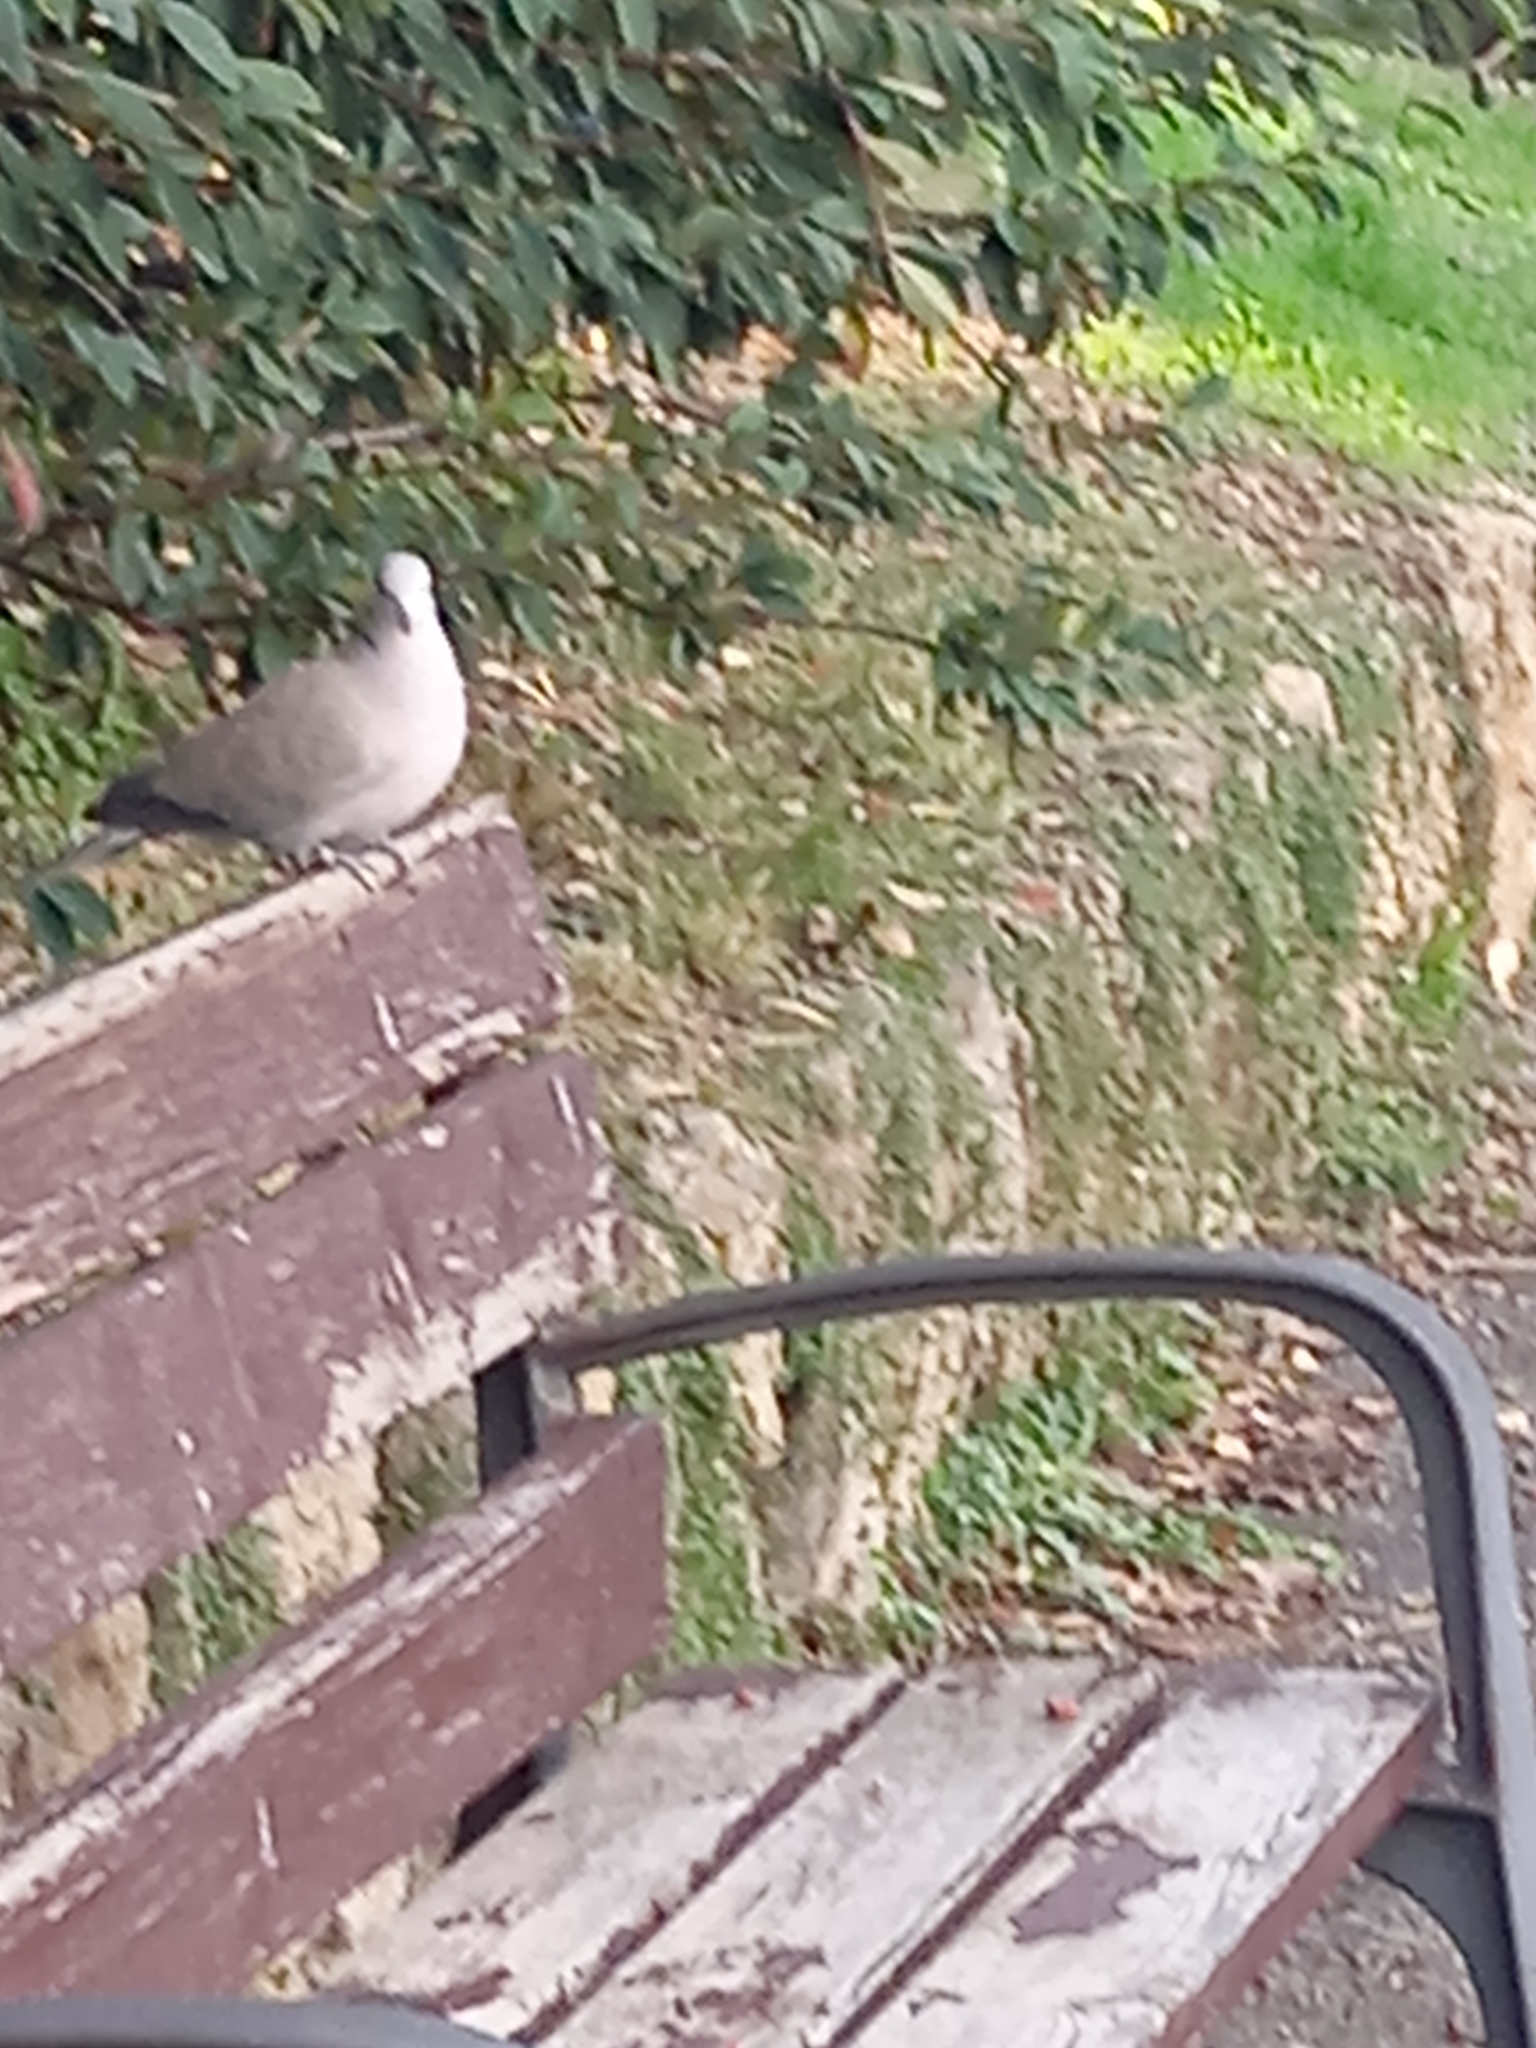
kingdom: Animalia
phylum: Chordata
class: Aves
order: Columbiformes
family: Columbidae
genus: Streptopelia
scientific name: Streptopelia decaocto
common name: Eurasian collared dove
